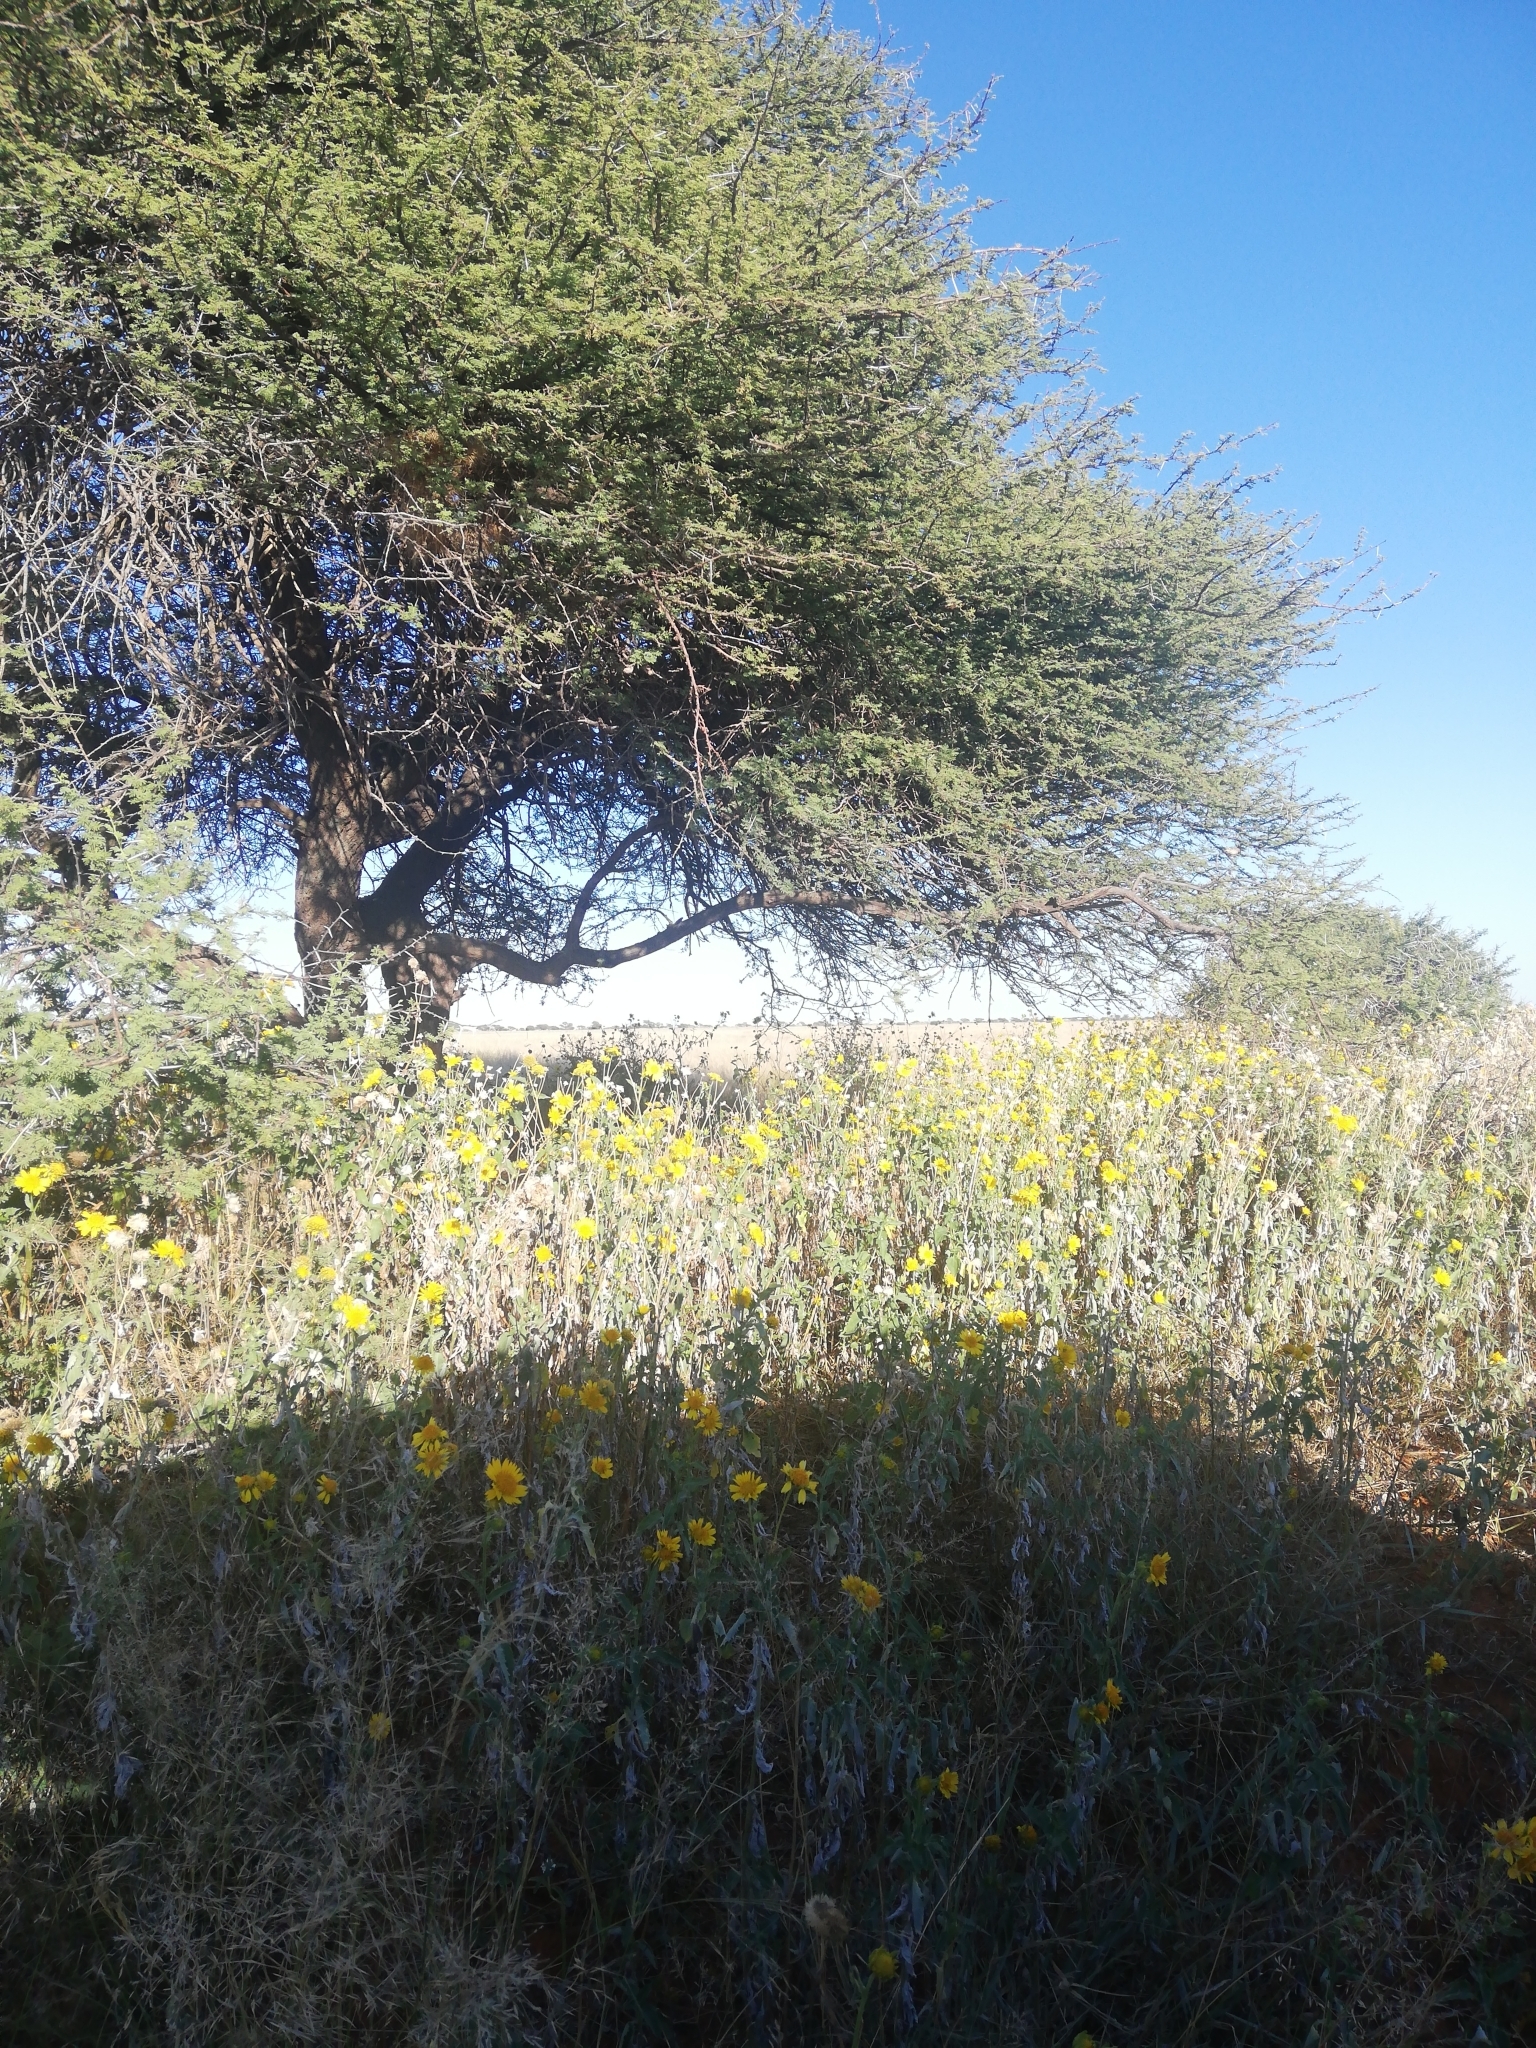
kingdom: Plantae
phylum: Tracheophyta
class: Magnoliopsida
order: Asterales
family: Asteraceae
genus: Verbesina
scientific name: Verbesina encelioides
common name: Golden crownbeard
